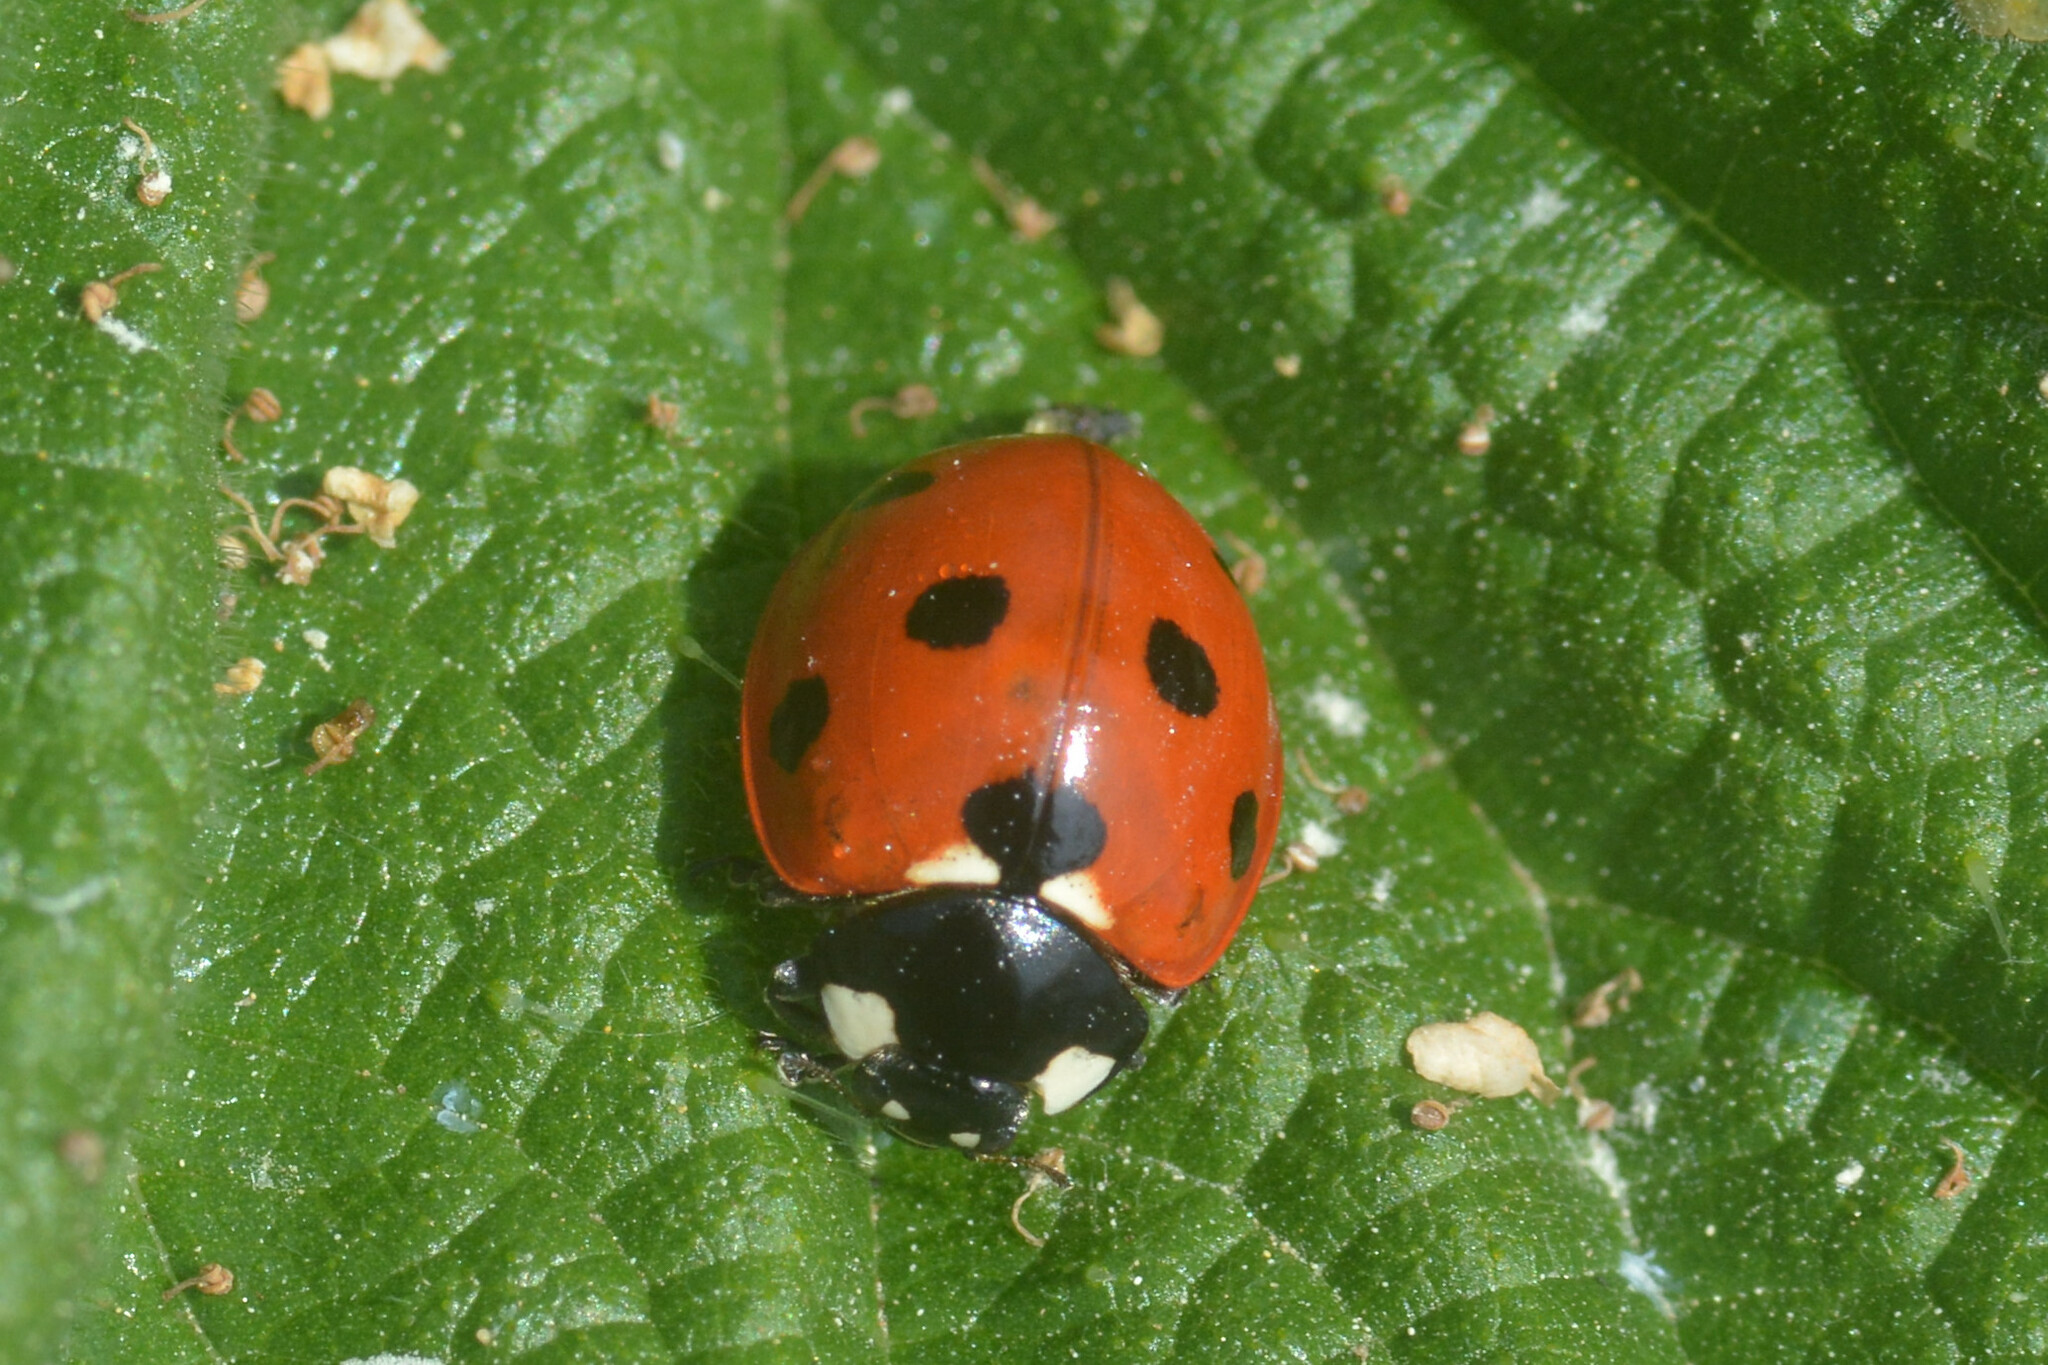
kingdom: Animalia
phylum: Arthropoda
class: Insecta
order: Coleoptera
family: Coccinellidae
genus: Coccinella
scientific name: Coccinella septempunctata
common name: Sevenspotted lady beetle
